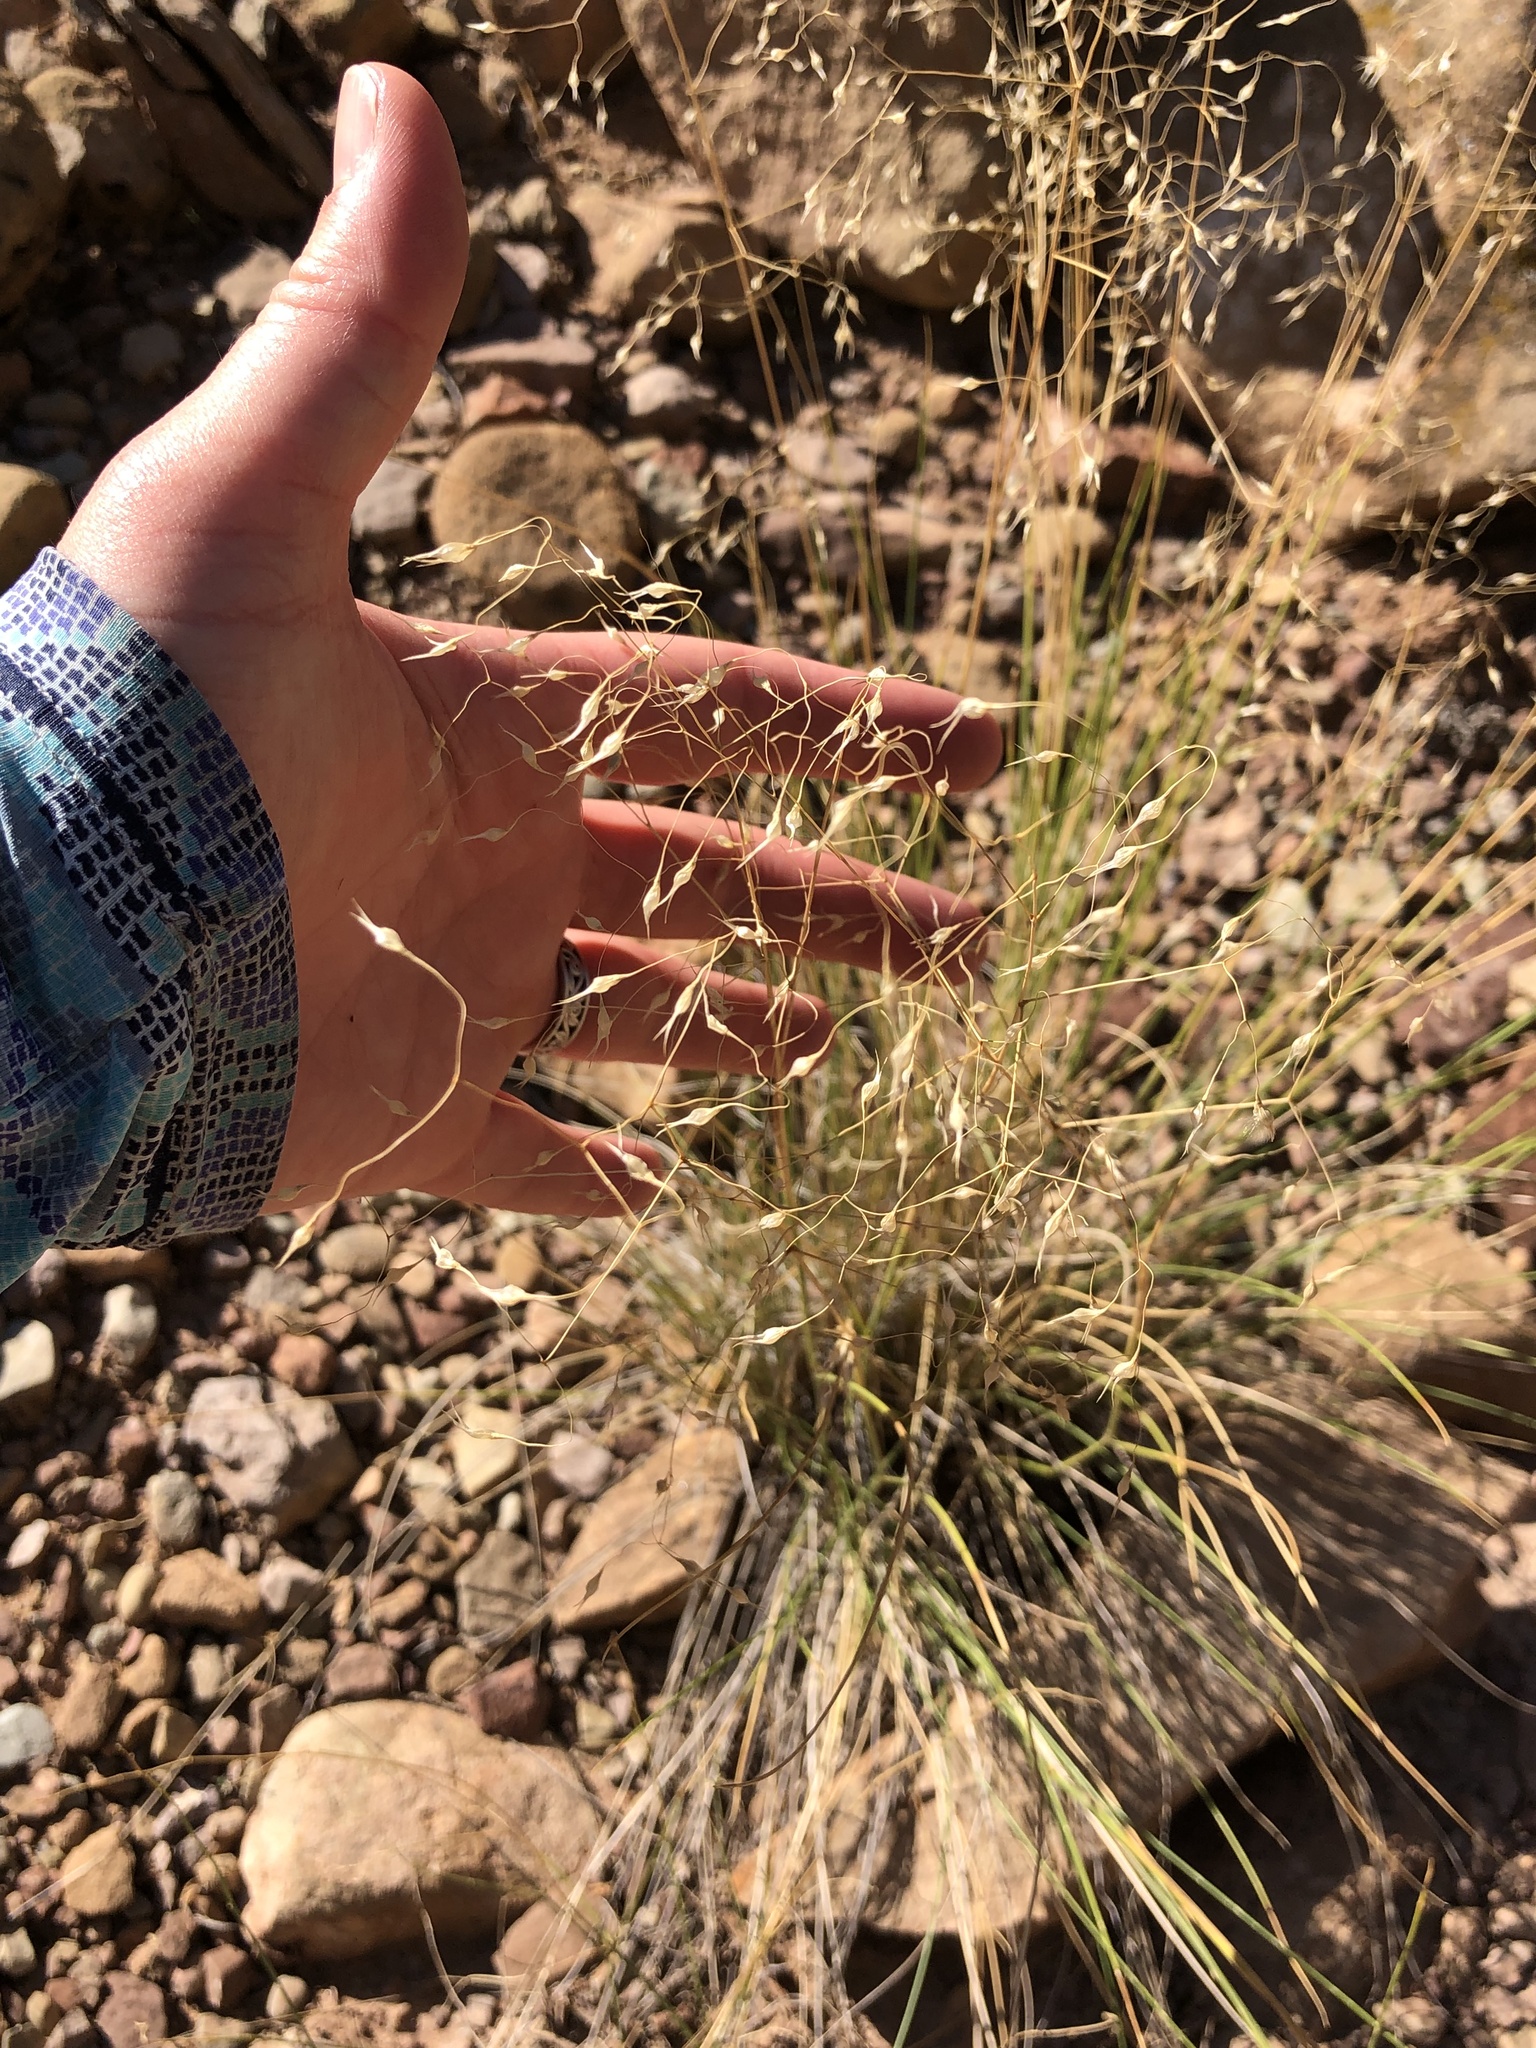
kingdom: Plantae
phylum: Tracheophyta
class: Liliopsida
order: Poales
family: Poaceae
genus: Eriocoma
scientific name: Eriocoma hymenoides
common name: Indian mountain ricegrass
